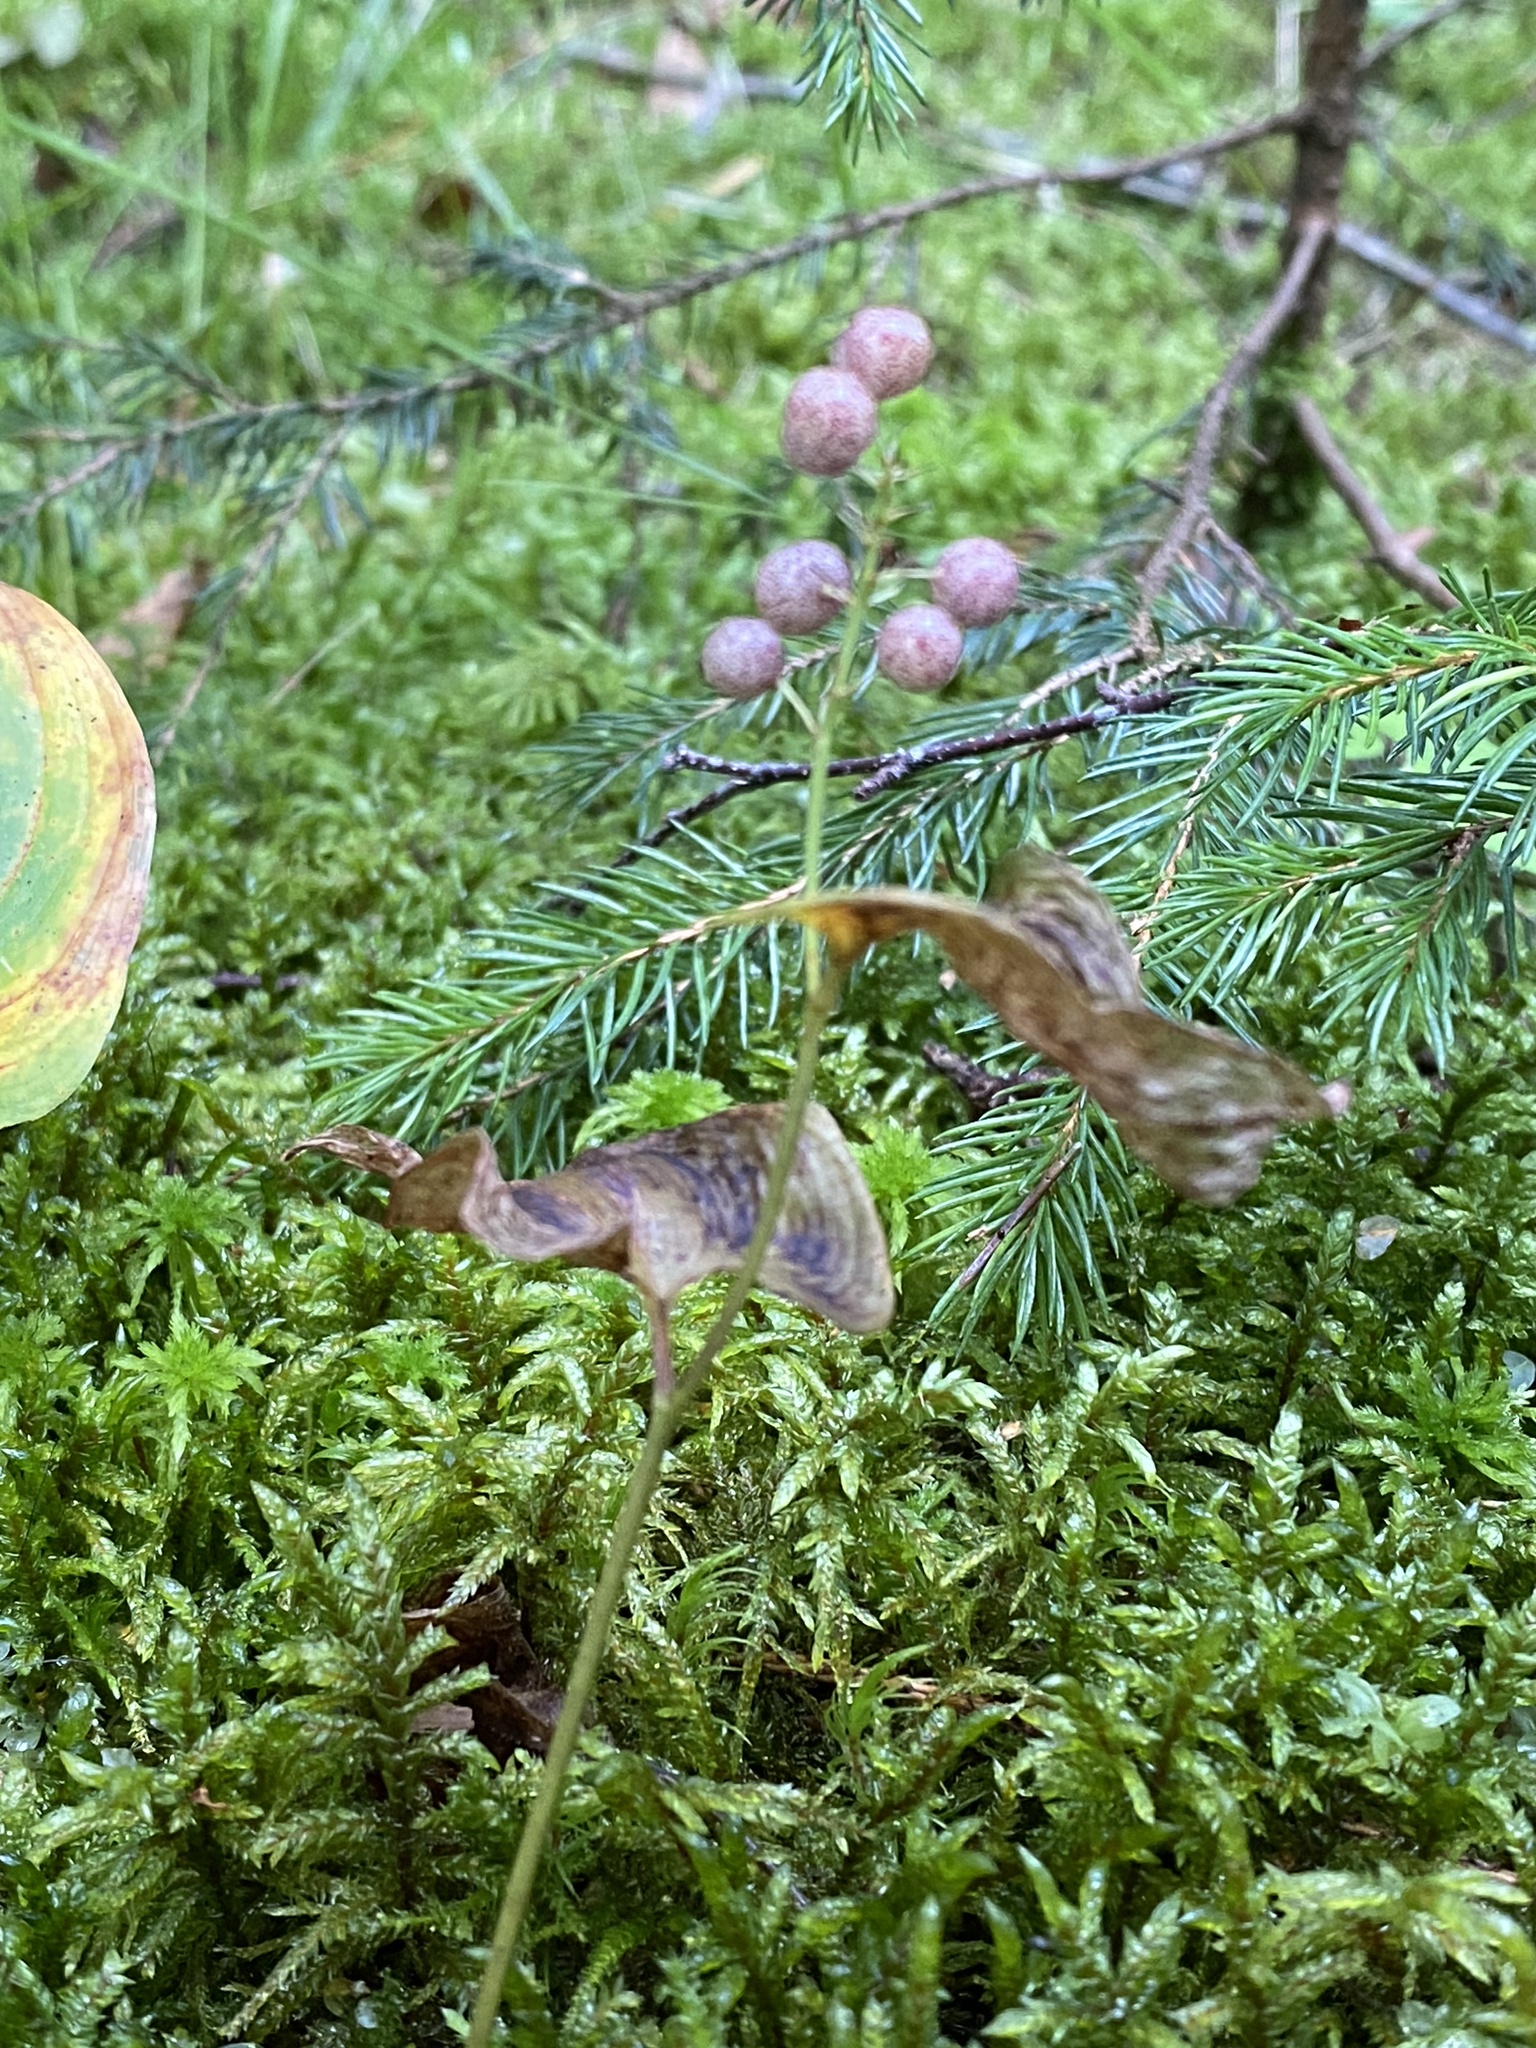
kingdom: Plantae
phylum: Tracheophyta
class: Liliopsida
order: Asparagales
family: Asparagaceae
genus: Maianthemum
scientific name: Maianthemum bifolium
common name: May lily
